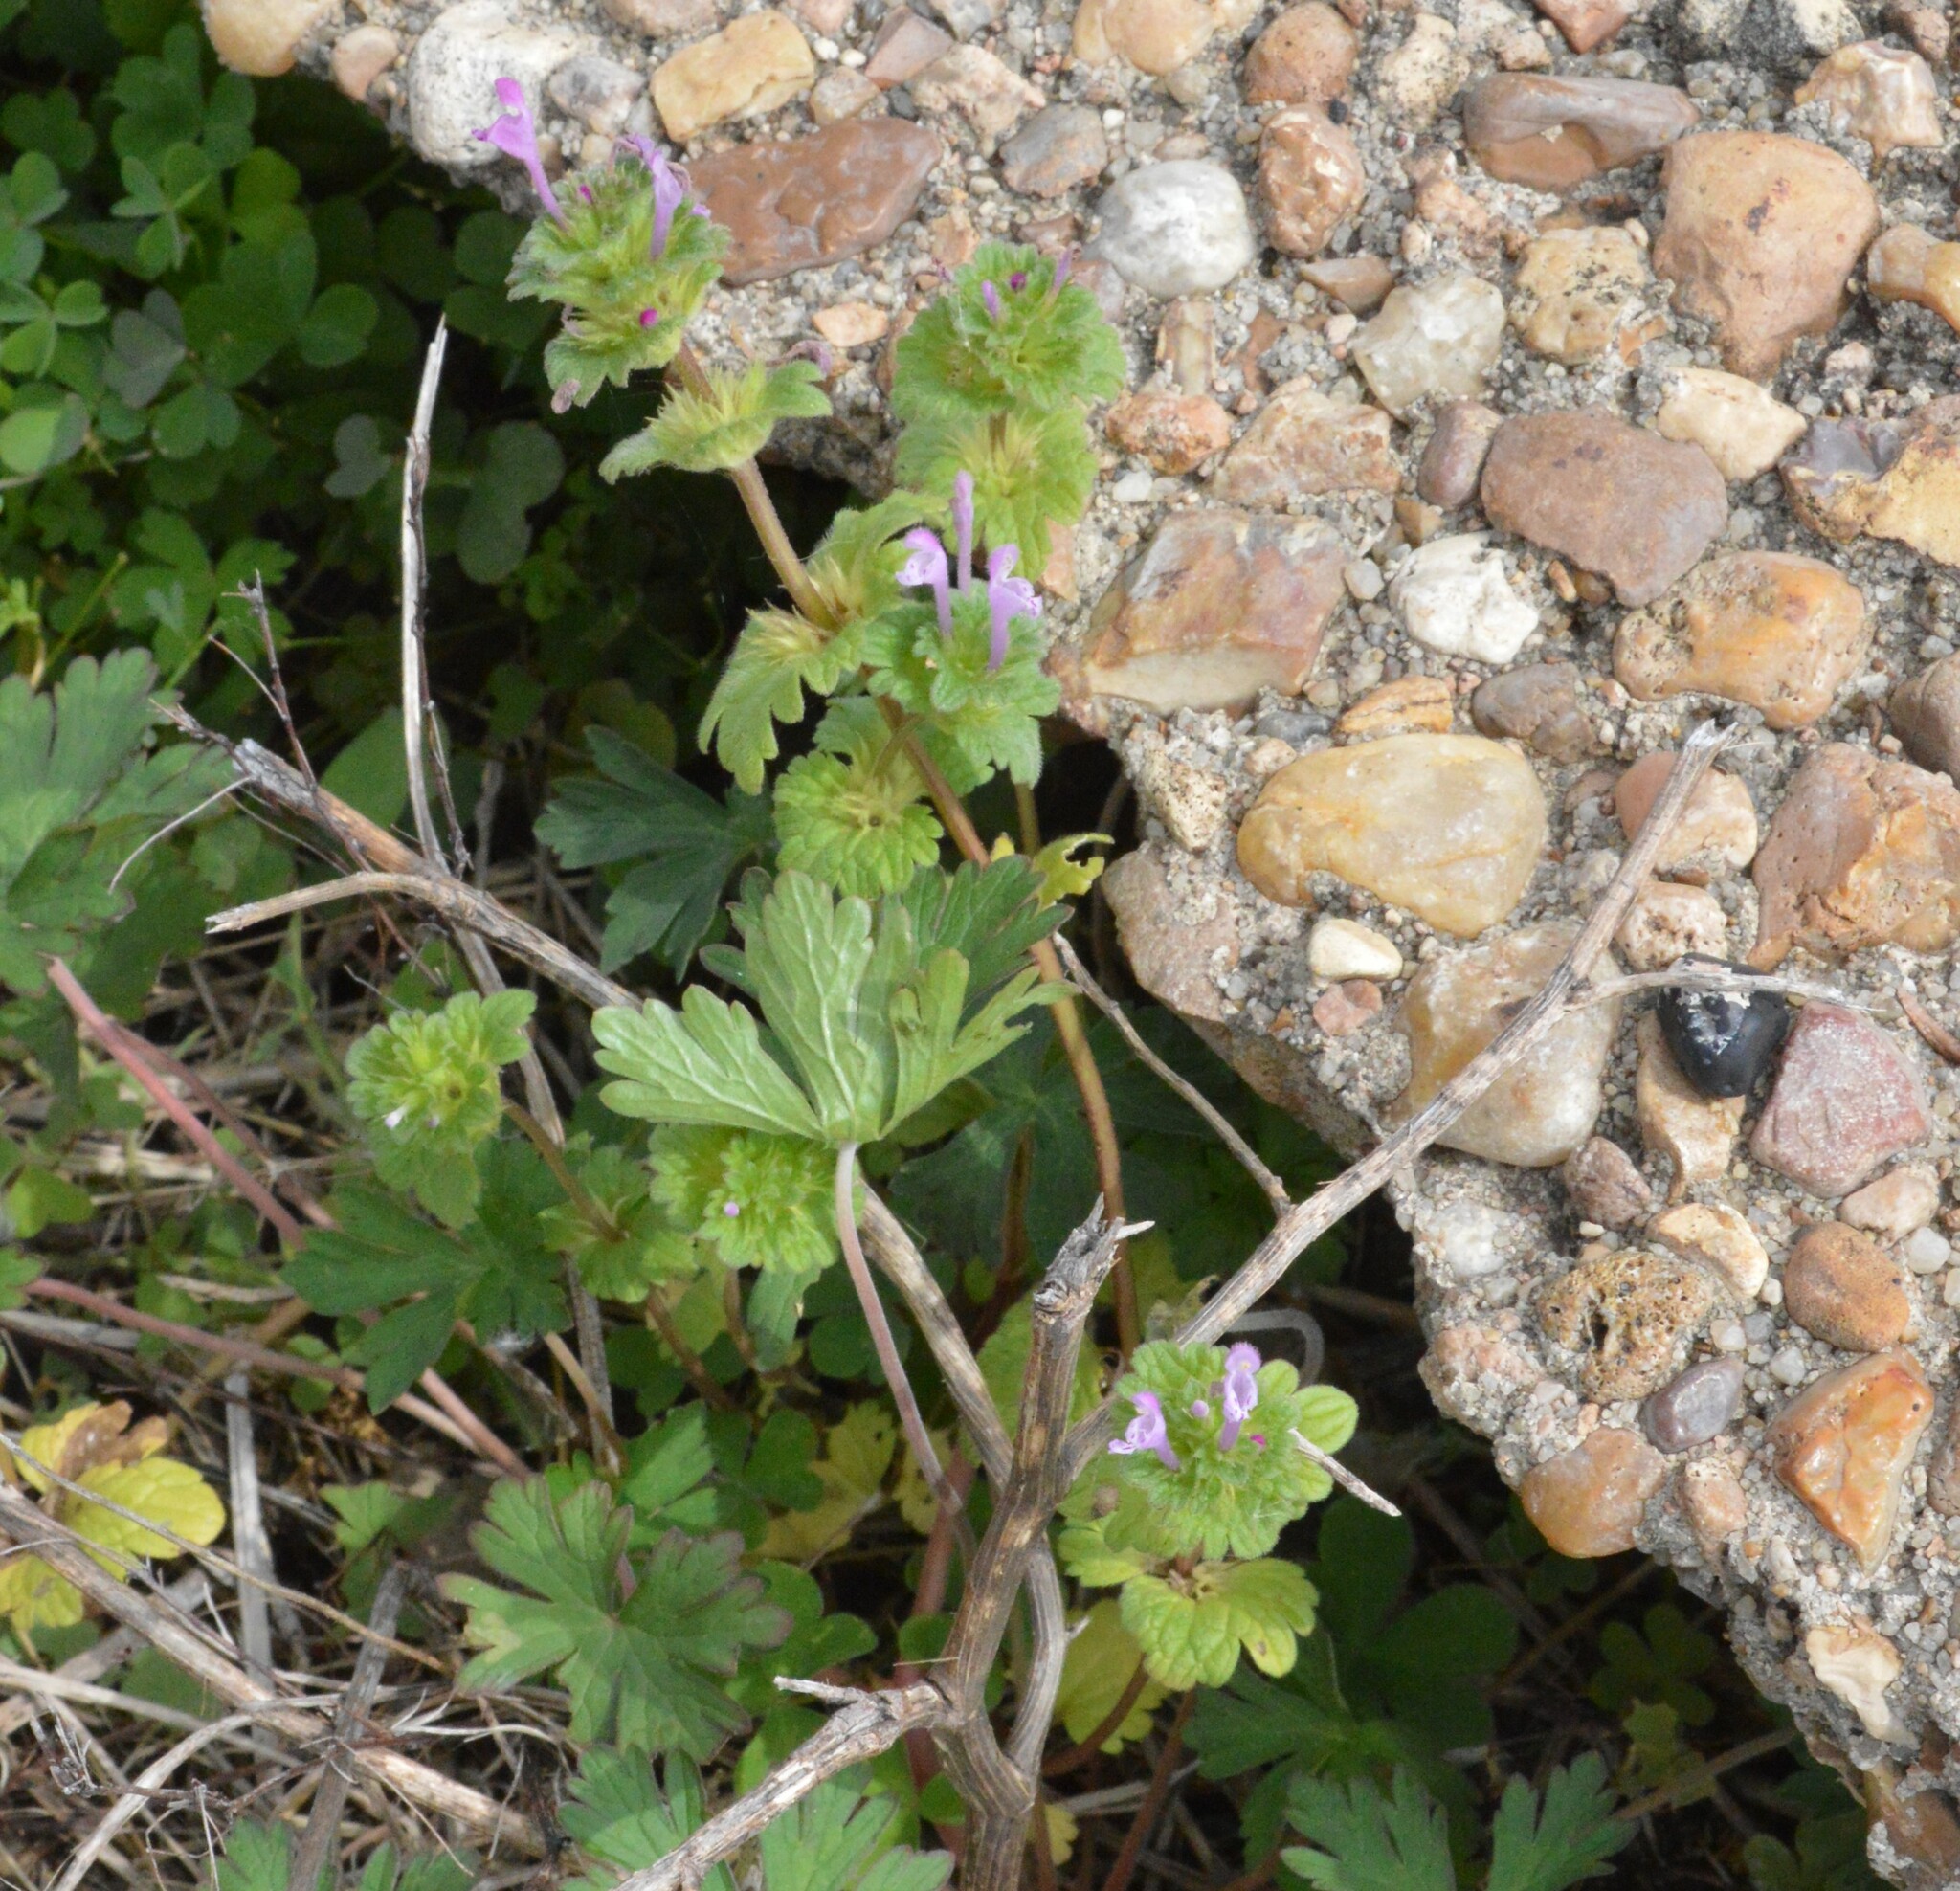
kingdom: Plantae
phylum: Tracheophyta
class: Magnoliopsida
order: Lamiales
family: Lamiaceae
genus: Lamium
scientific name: Lamium amplexicaule
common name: Henbit dead-nettle
